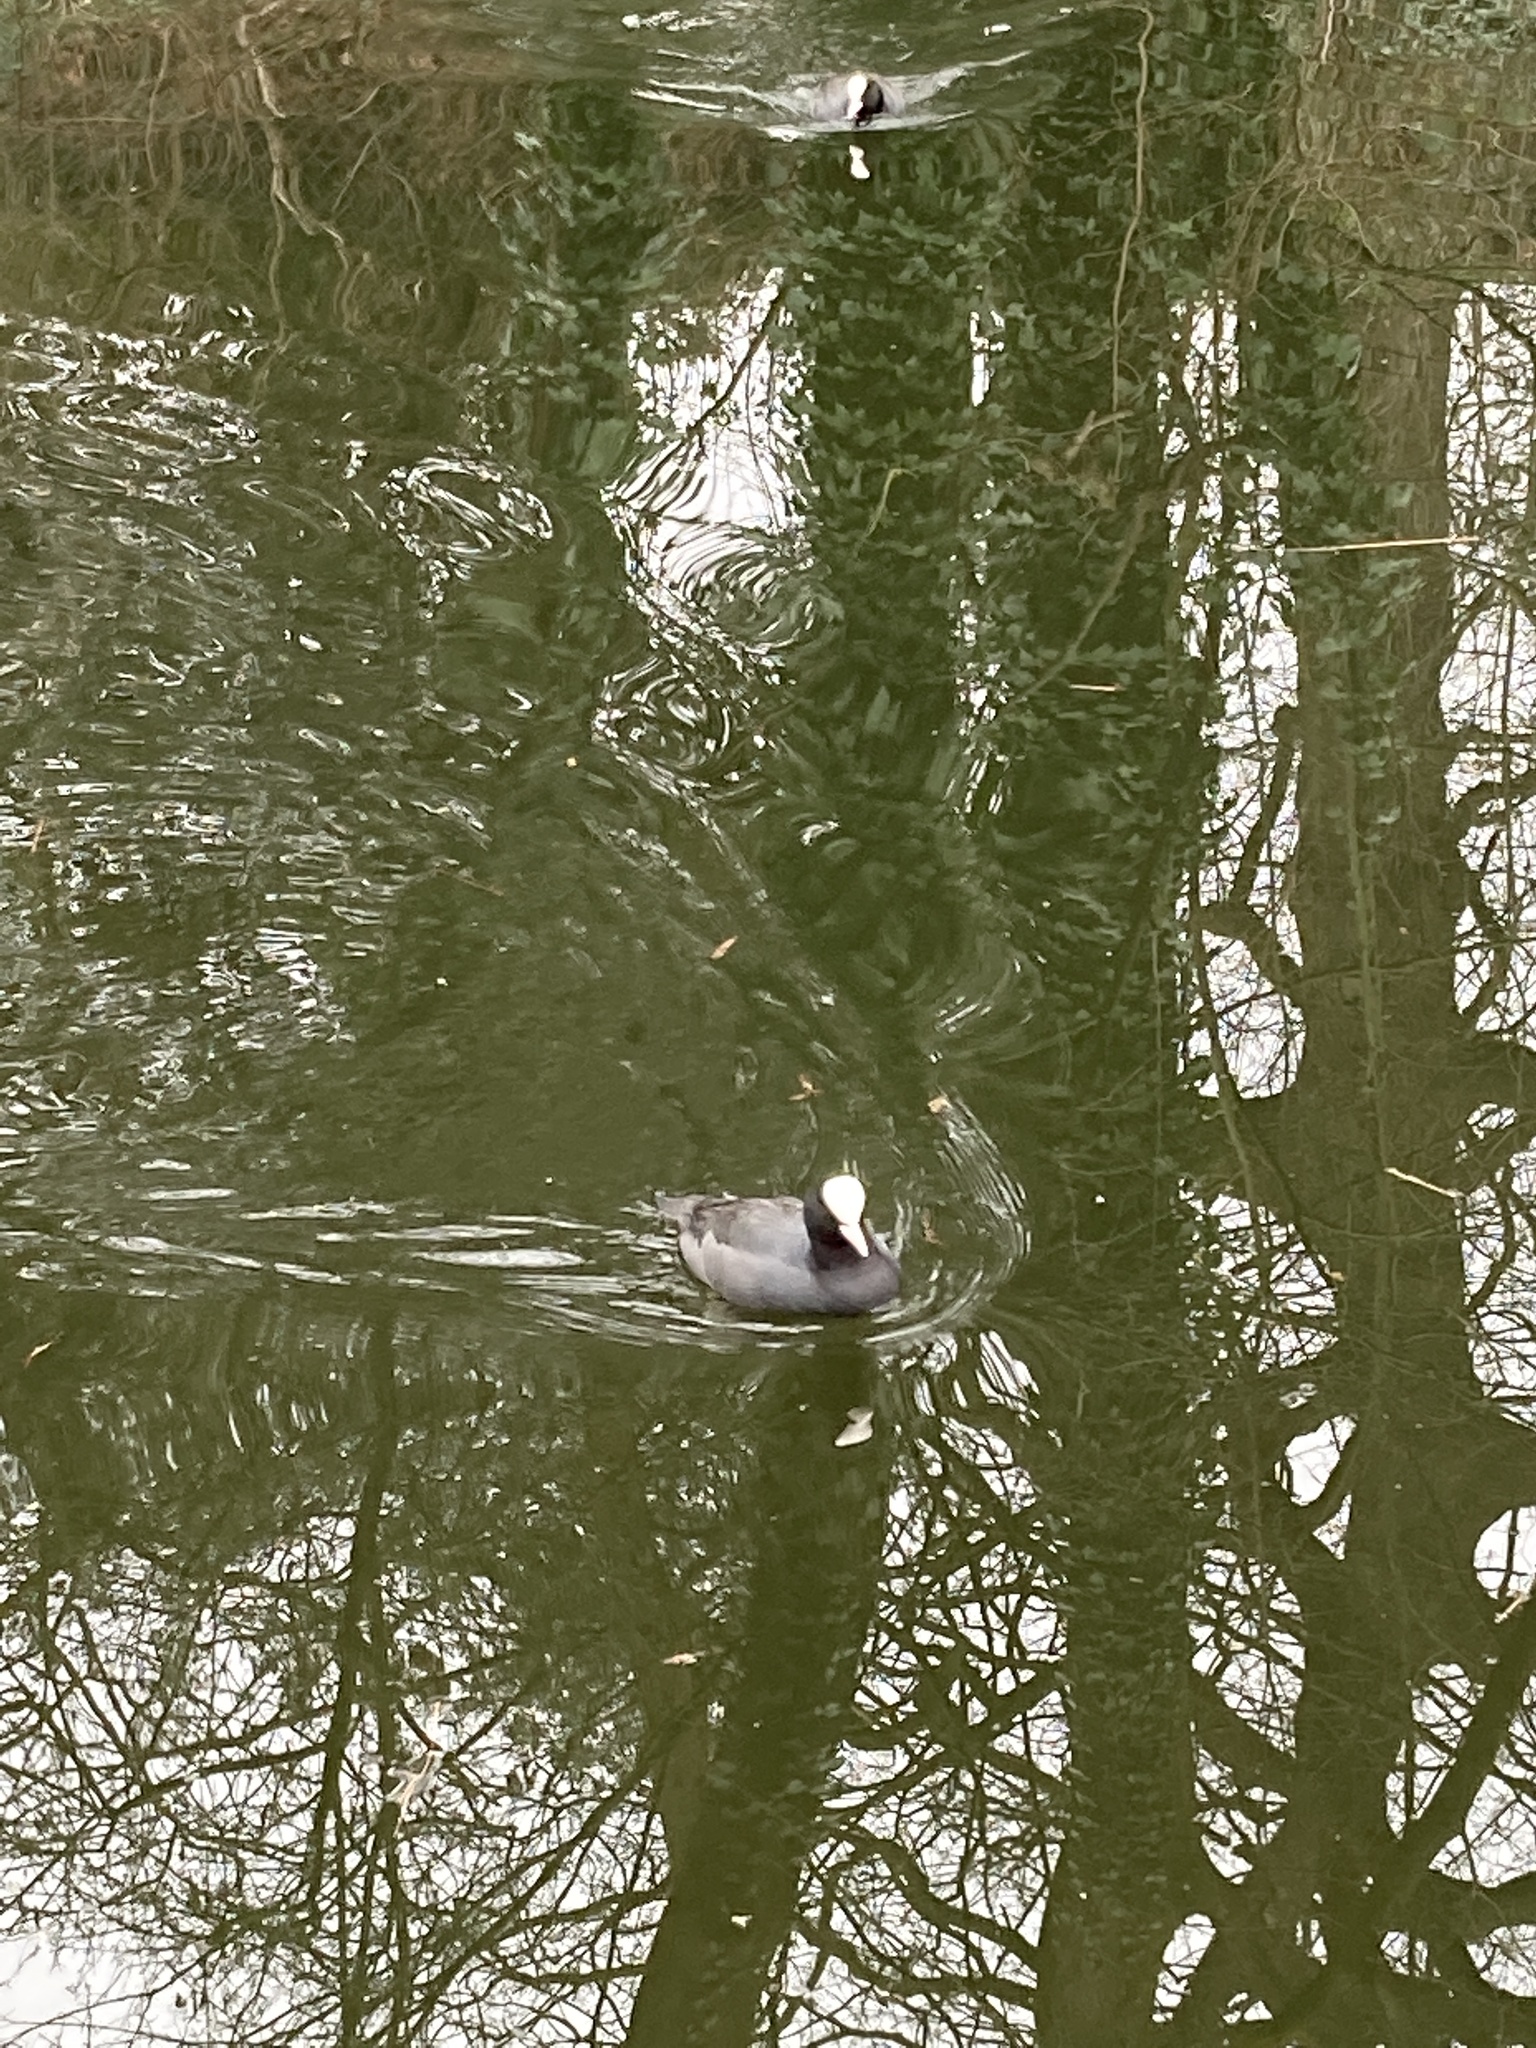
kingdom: Animalia
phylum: Chordata
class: Aves
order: Gruiformes
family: Rallidae
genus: Fulica
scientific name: Fulica atra
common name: Eurasian coot
